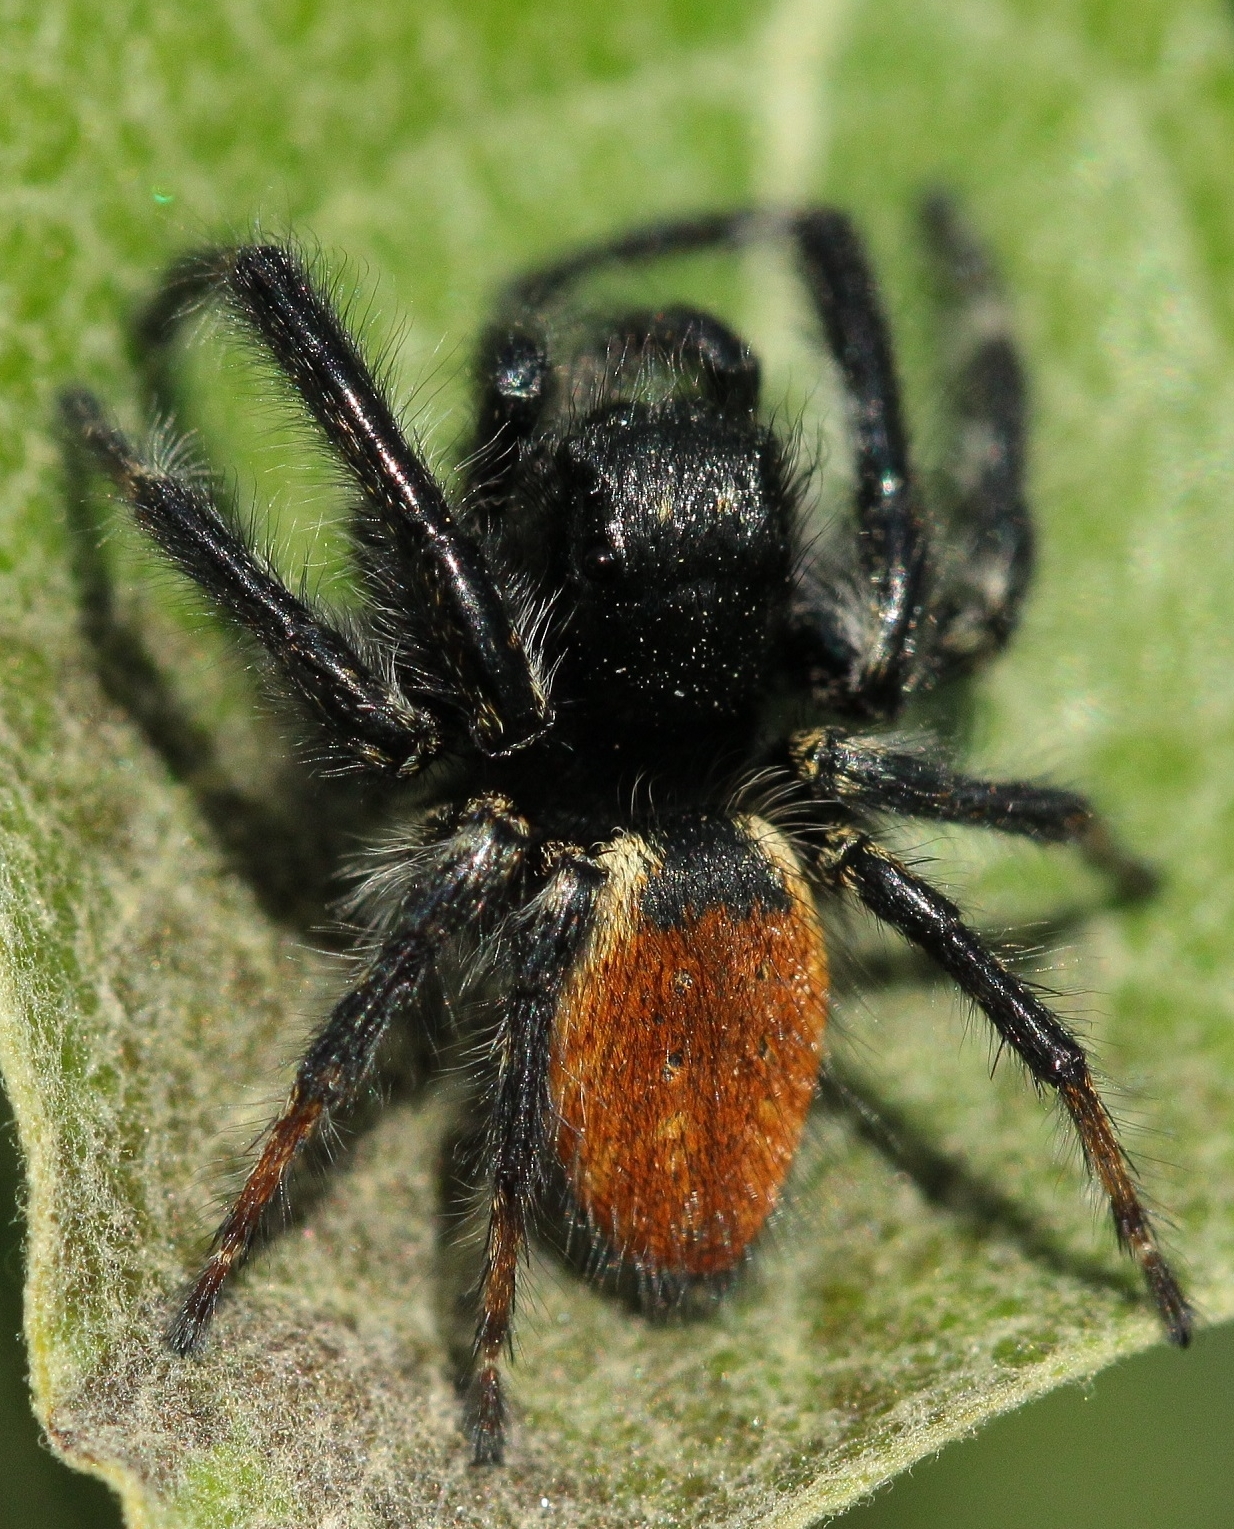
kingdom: Animalia
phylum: Arthropoda
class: Arachnida
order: Araneae
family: Salticidae
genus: Carrhotus
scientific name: Carrhotus xanthogramma
